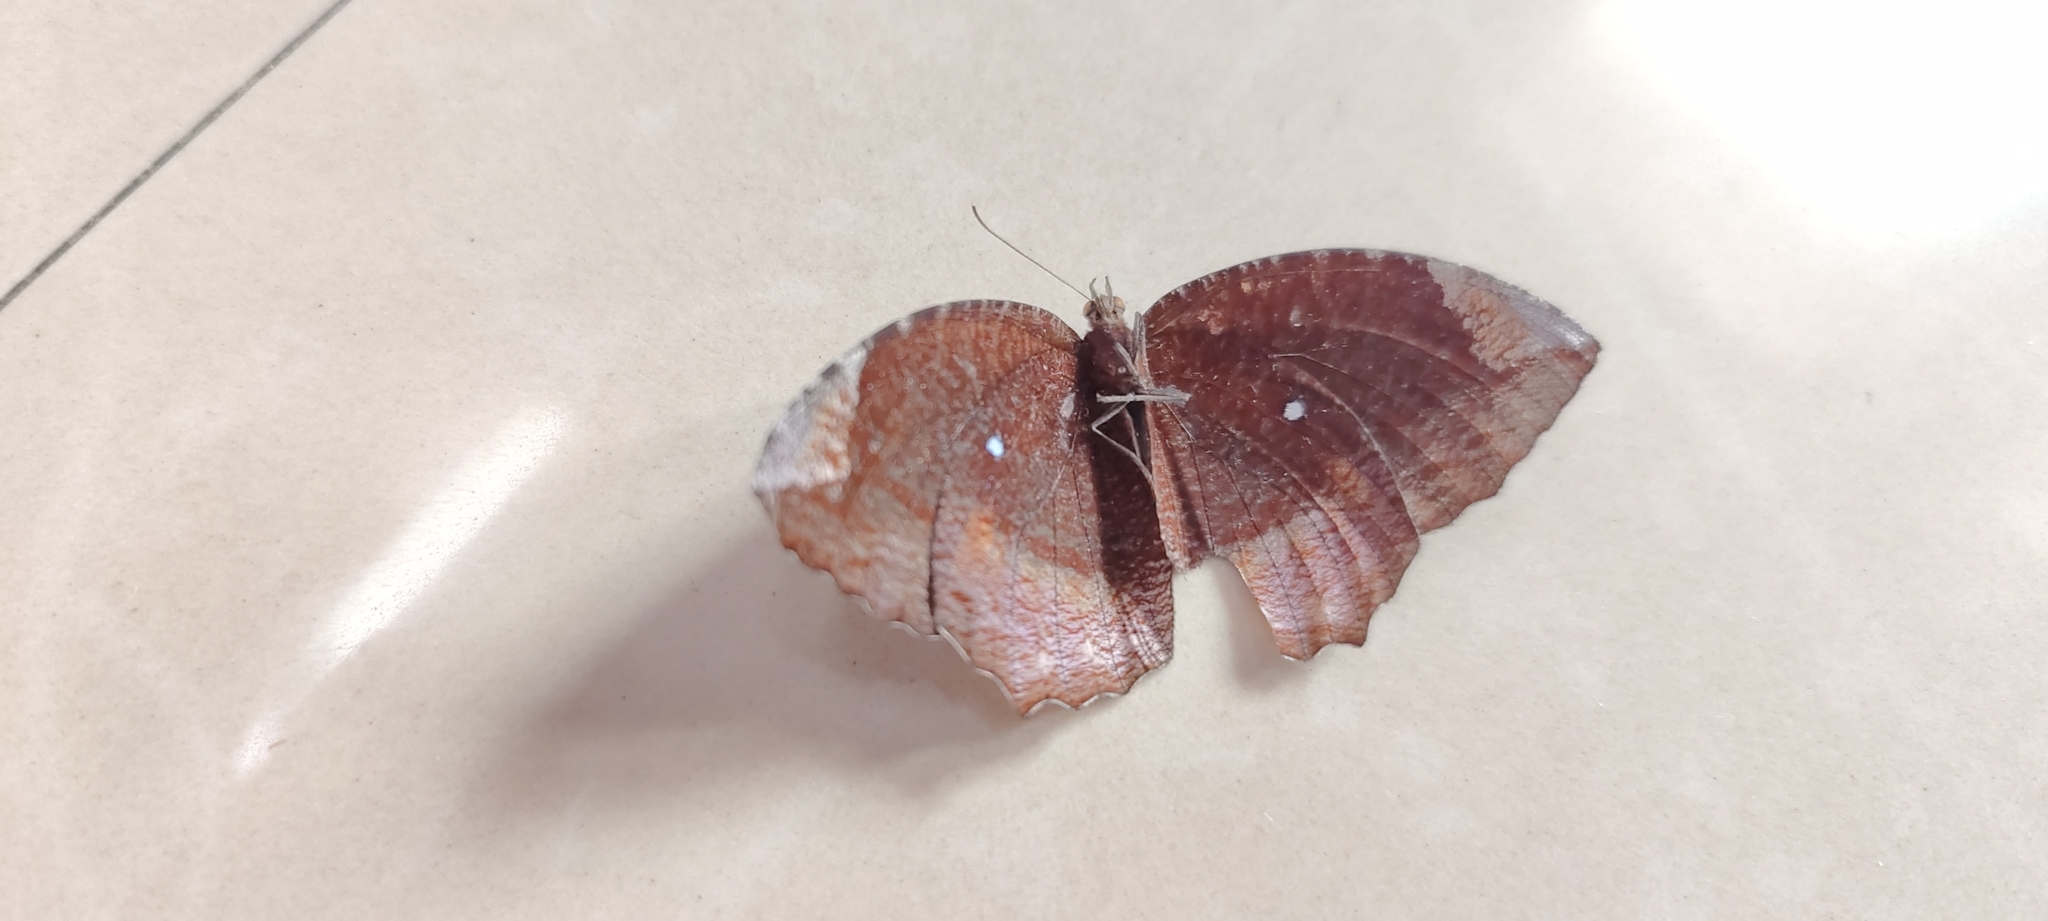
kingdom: Animalia
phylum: Arthropoda
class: Insecta
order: Lepidoptera
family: Nymphalidae
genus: Elymnias
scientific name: Elymnias hypermnestra
